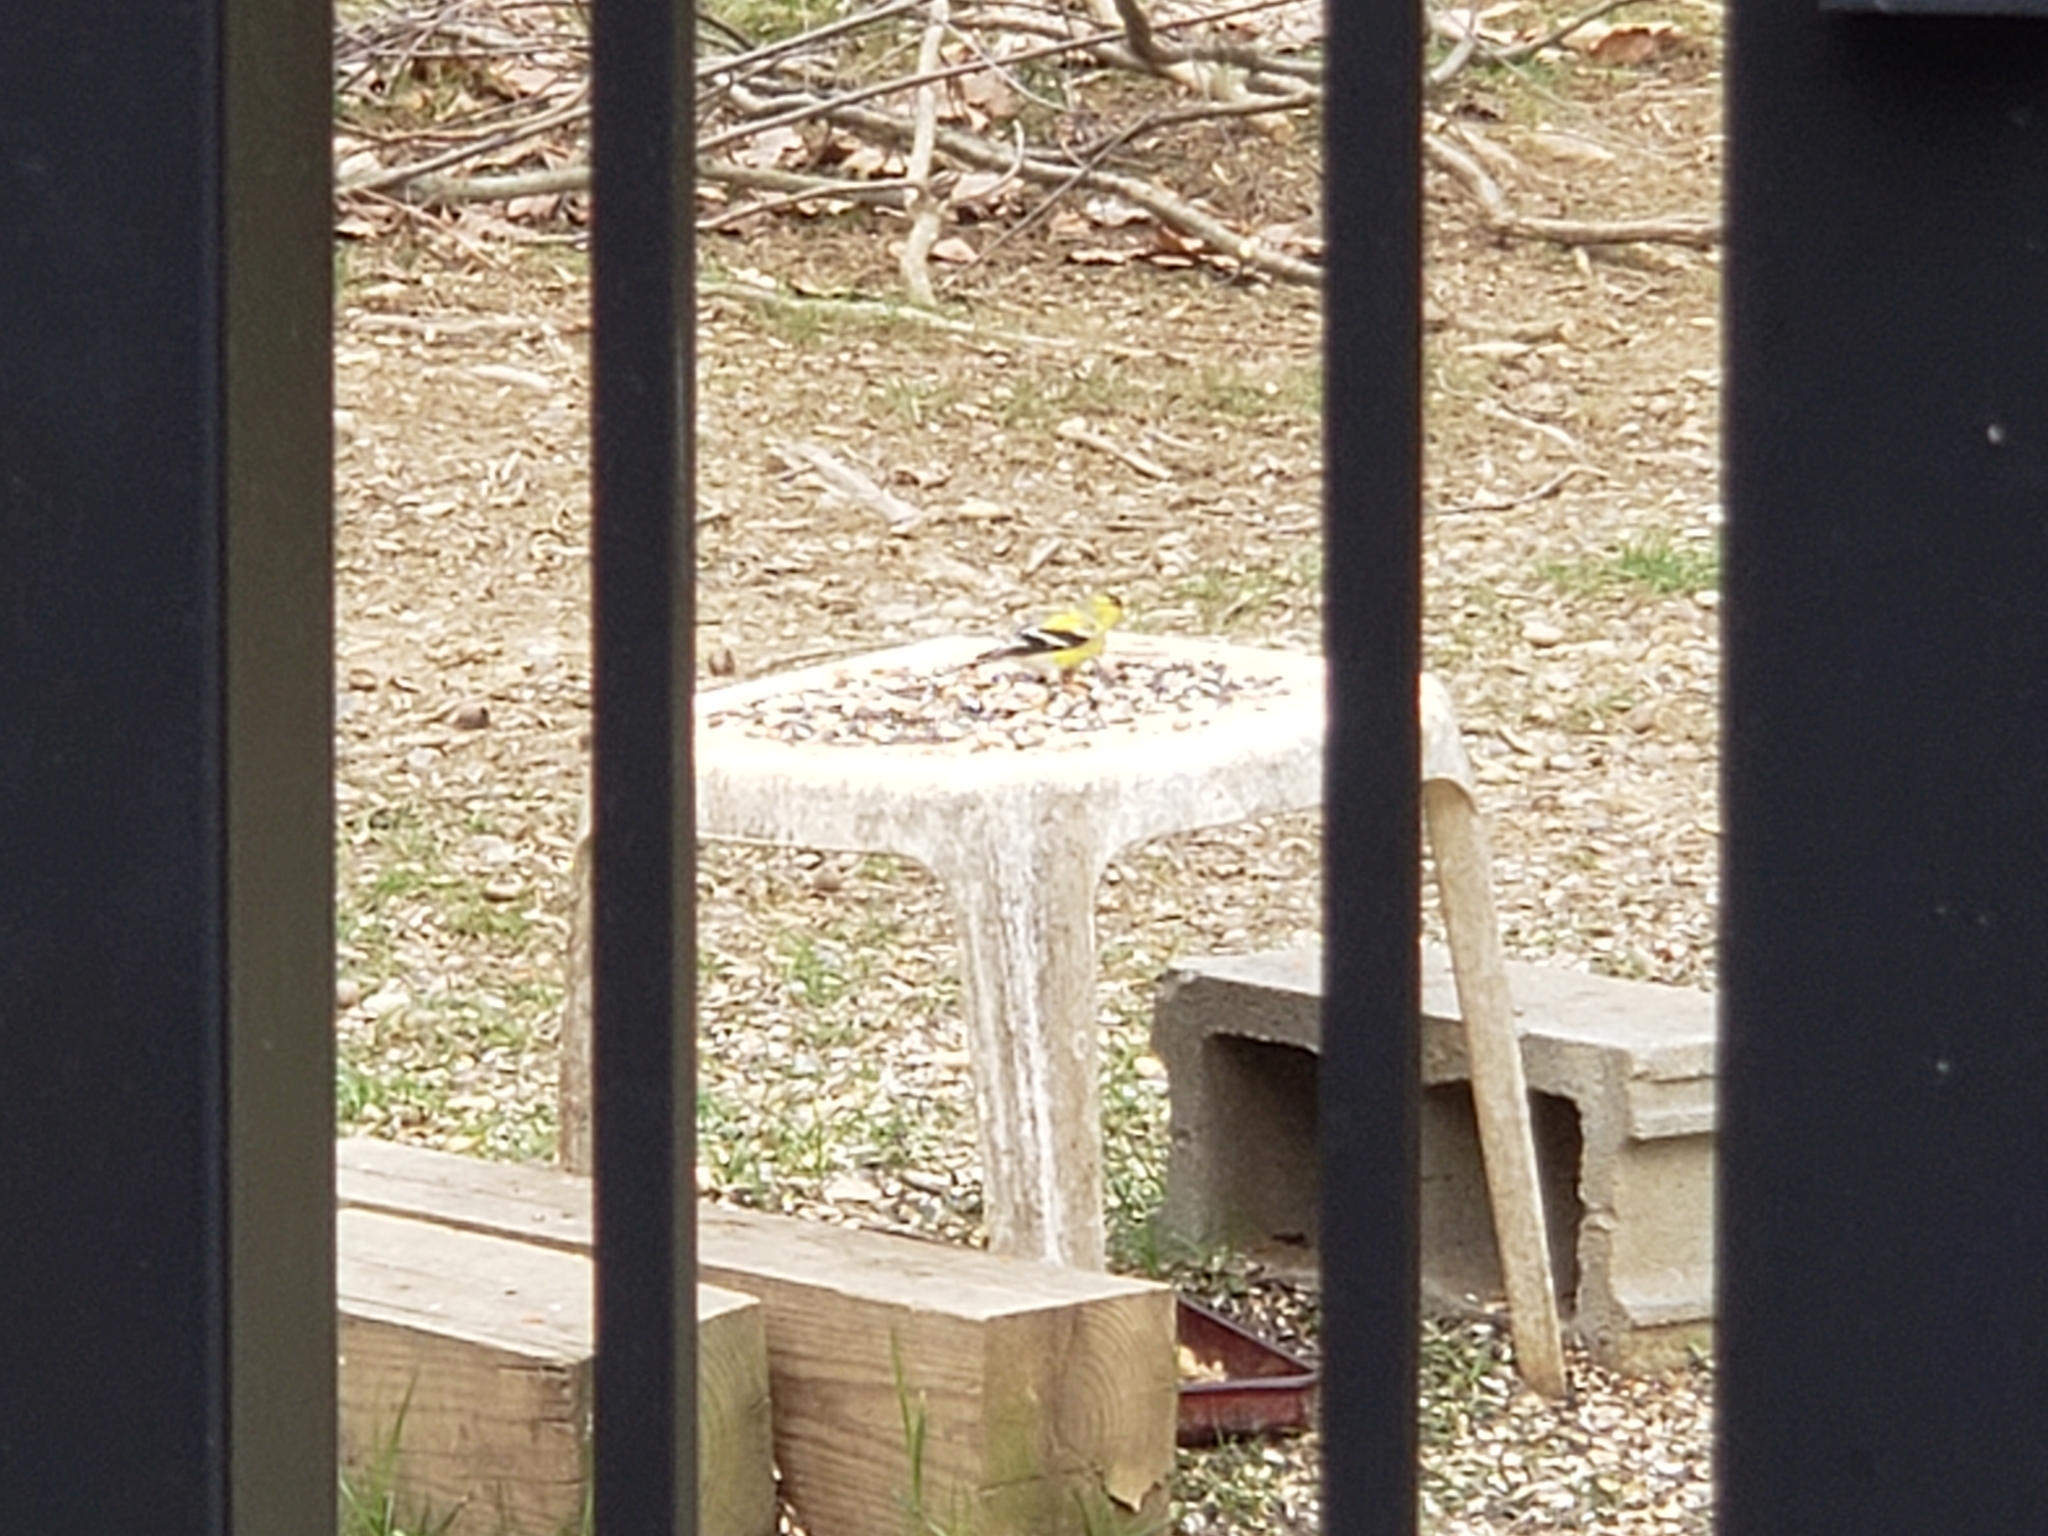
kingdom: Animalia
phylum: Chordata
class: Aves
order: Passeriformes
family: Fringillidae
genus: Spinus
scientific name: Spinus tristis
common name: American goldfinch
